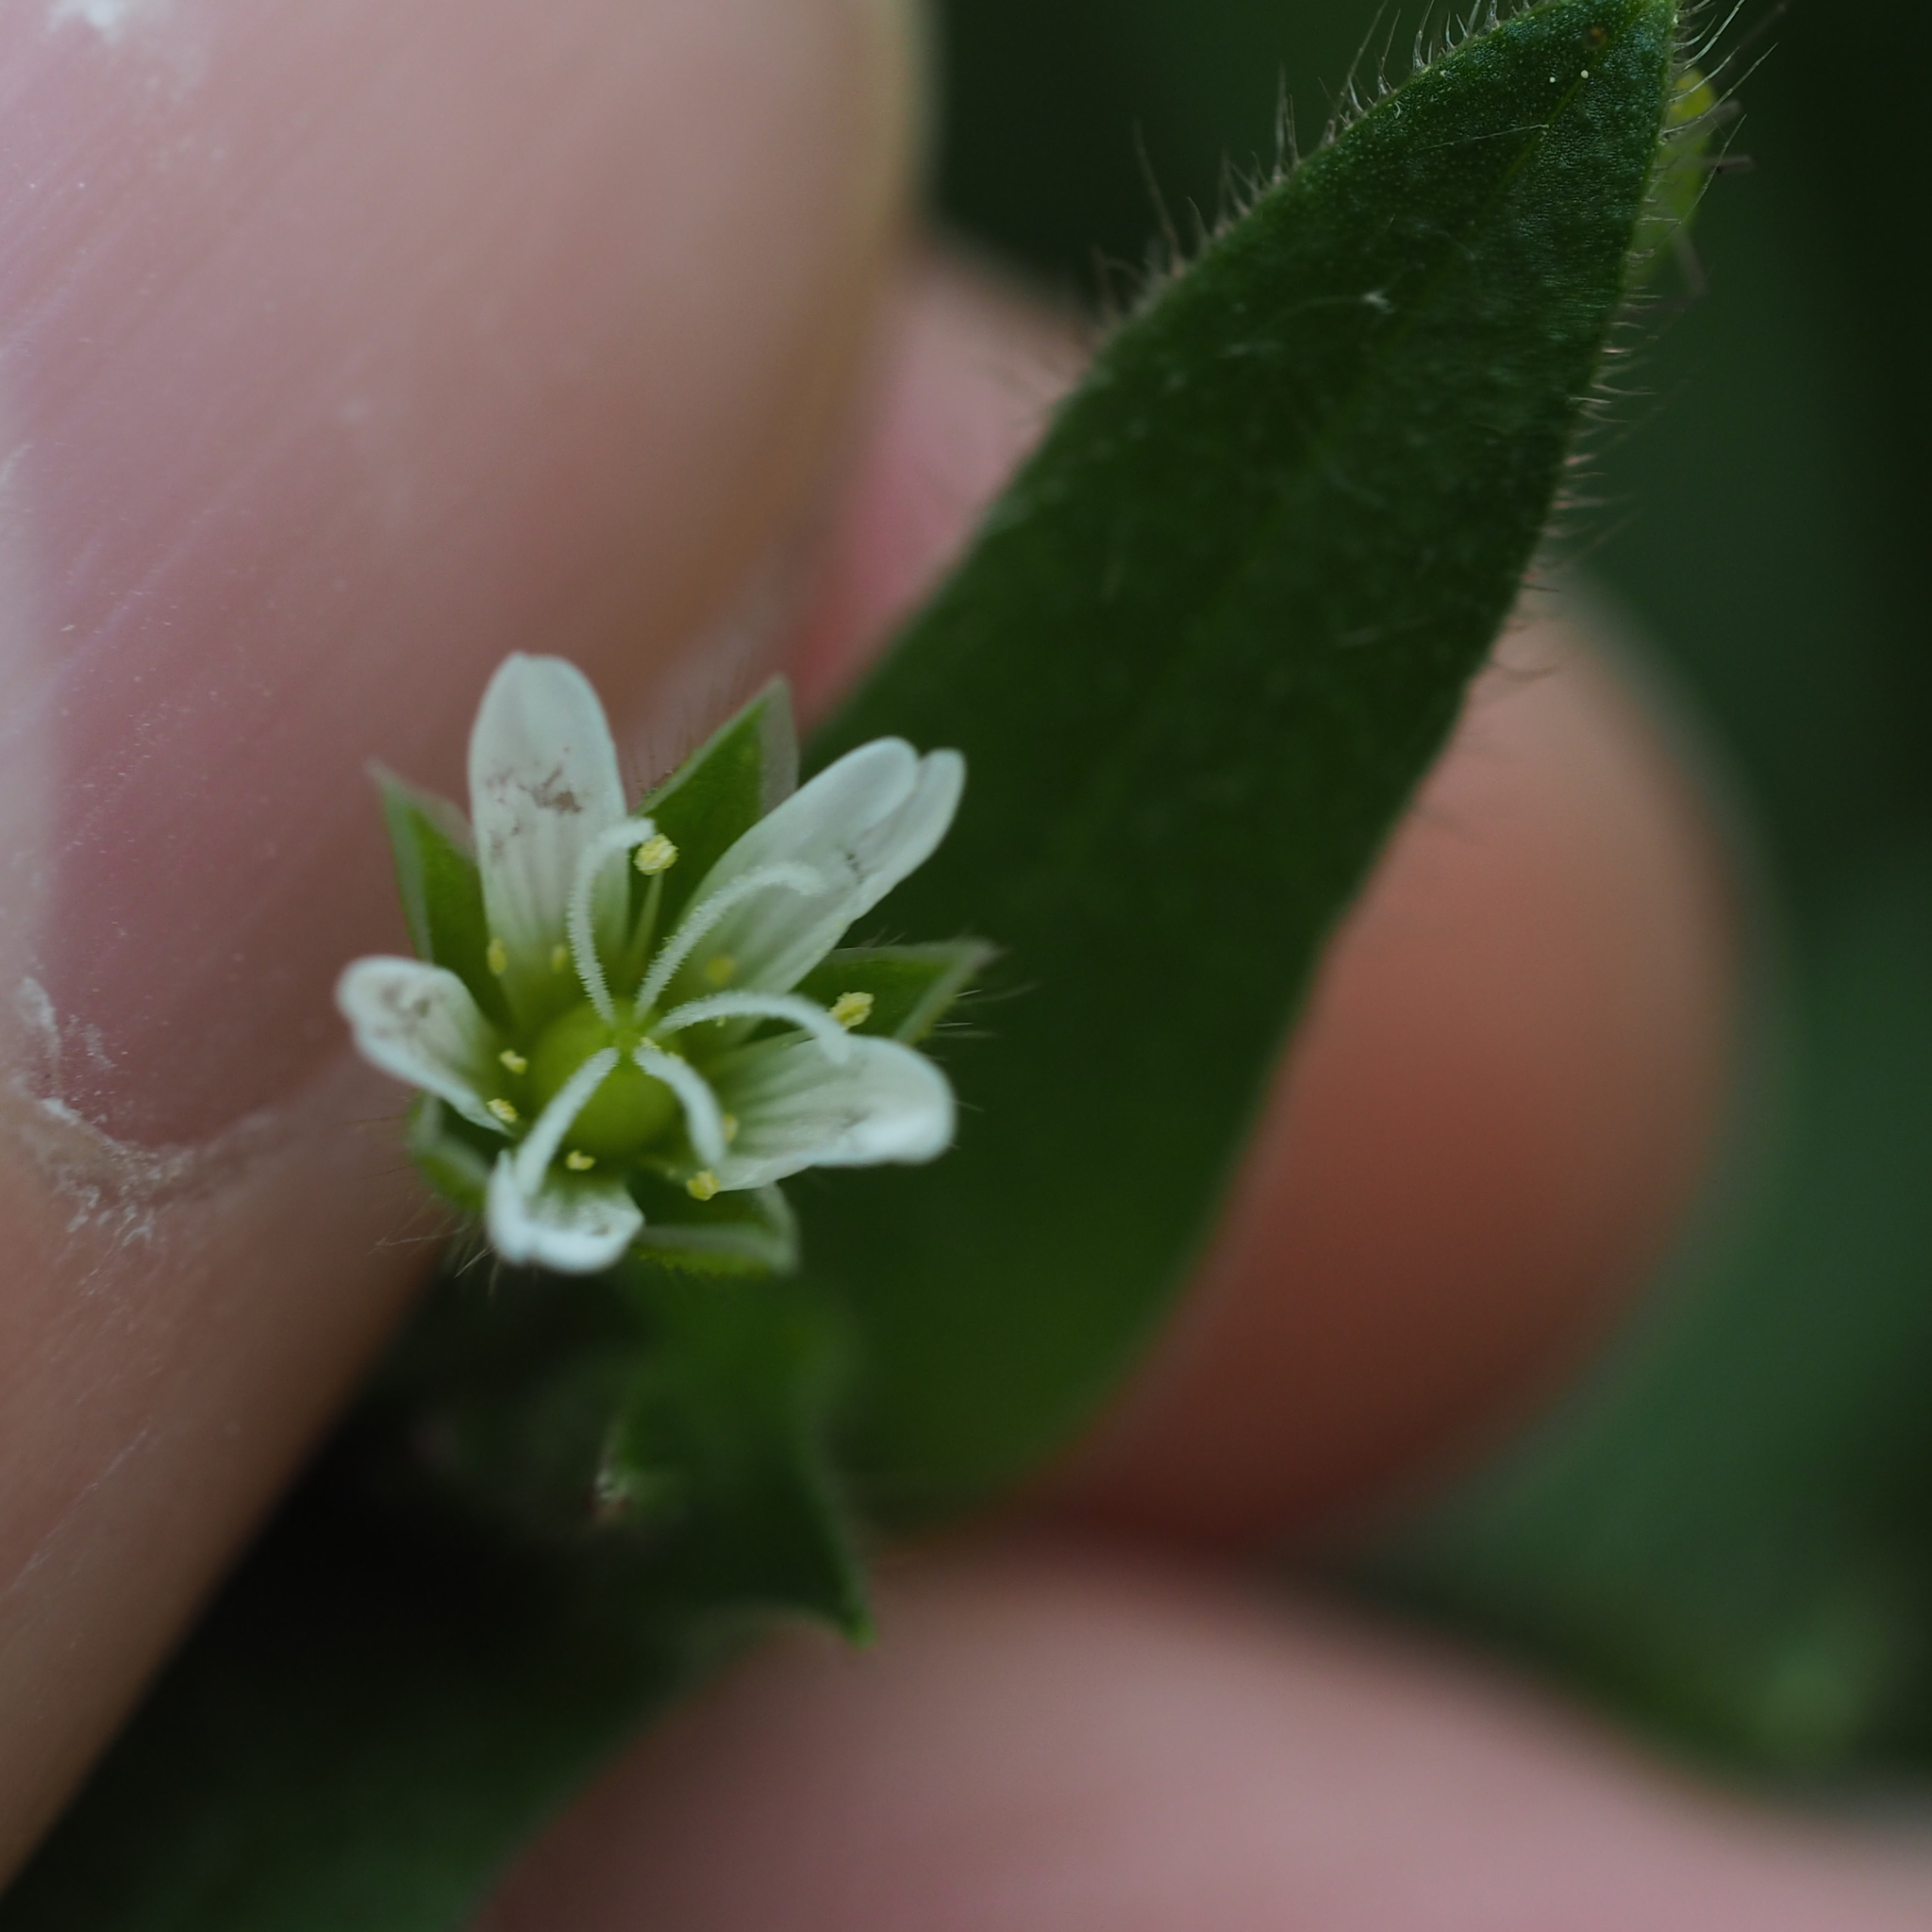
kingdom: Plantae
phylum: Tracheophyta
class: Magnoliopsida
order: Caryophyllales
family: Caryophyllaceae
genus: Cerastium
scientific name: Cerastium holosteoides
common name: Big chickweed
